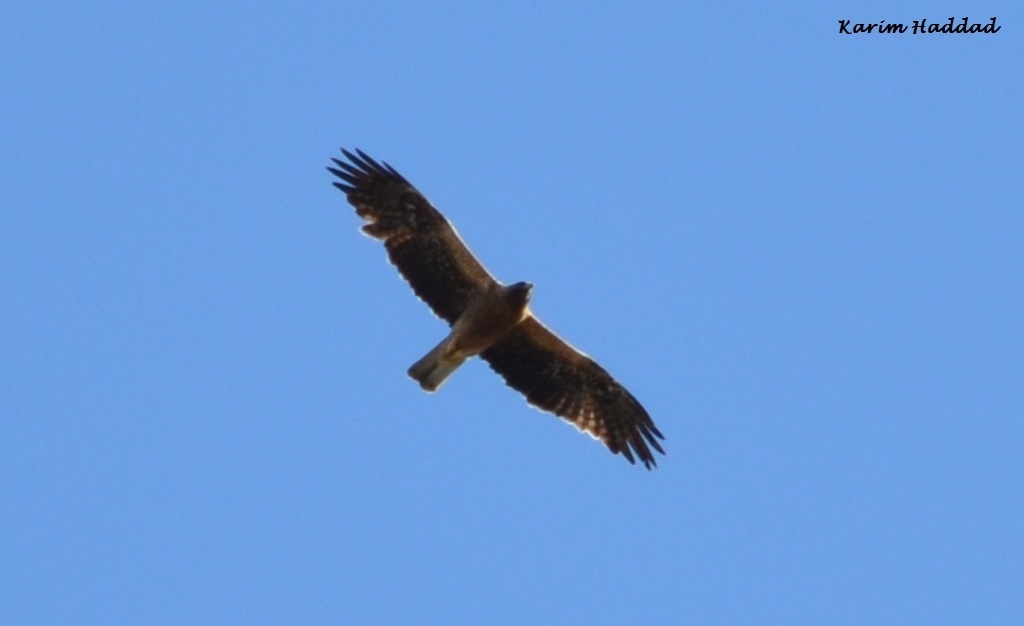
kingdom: Animalia
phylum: Chordata
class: Aves
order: Accipitriformes
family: Accipitridae
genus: Hieraaetus
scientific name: Hieraaetus pennatus
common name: Booted eagle
